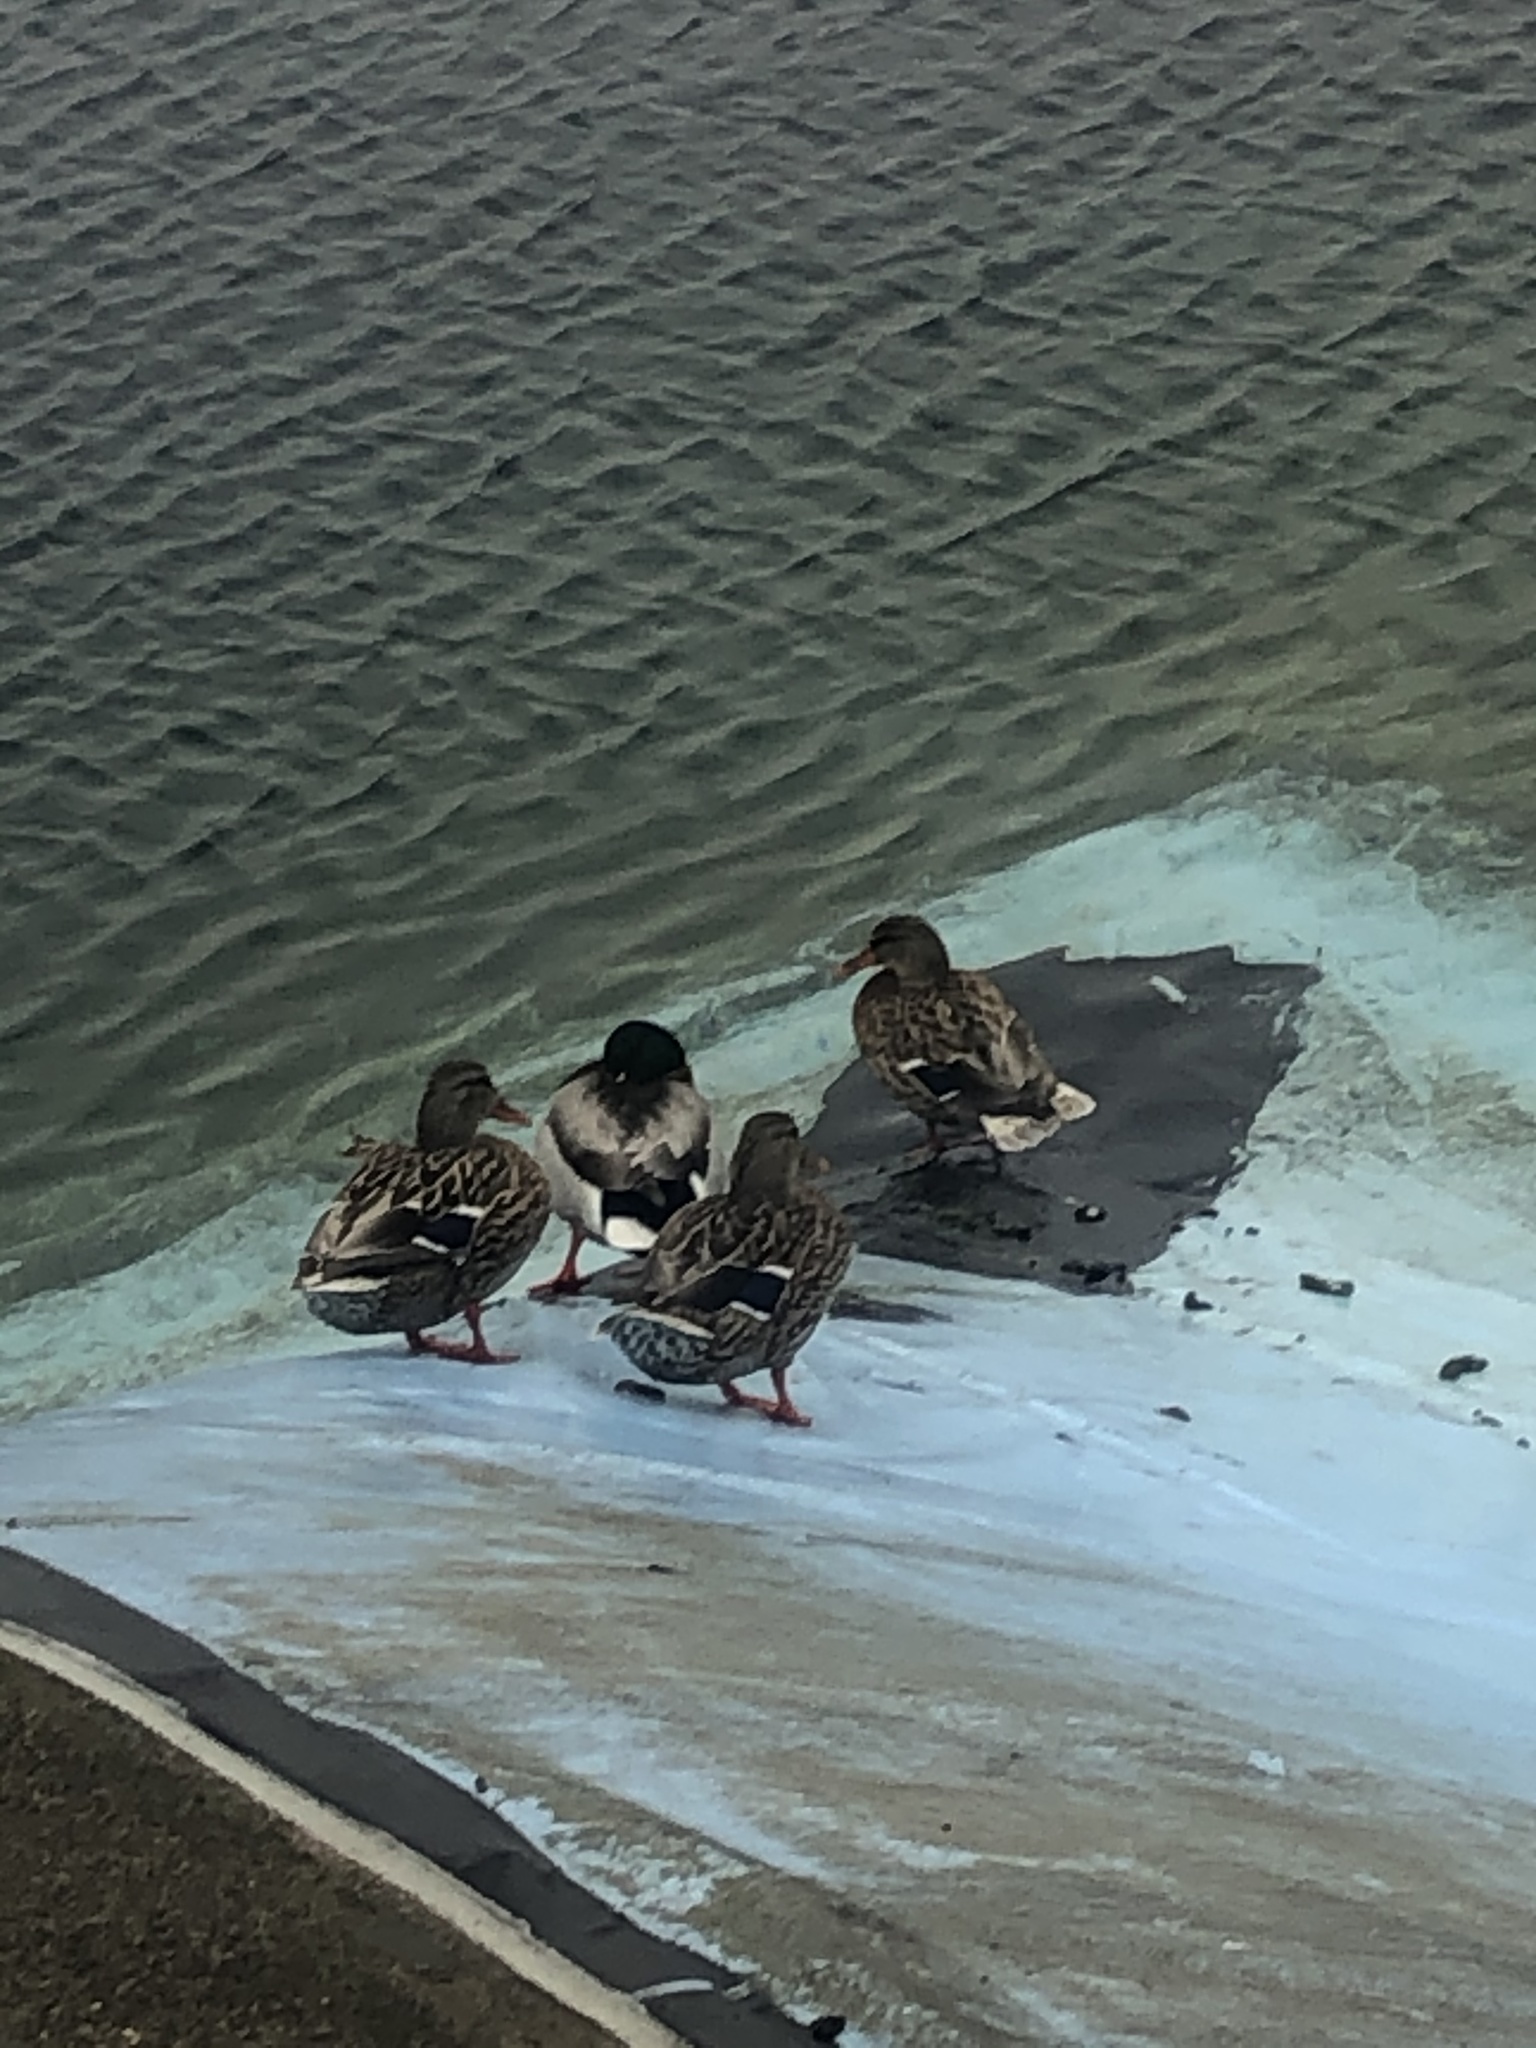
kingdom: Animalia
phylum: Chordata
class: Aves
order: Anseriformes
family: Anatidae
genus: Anas
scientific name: Anas platyrhynchos
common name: Mallard
